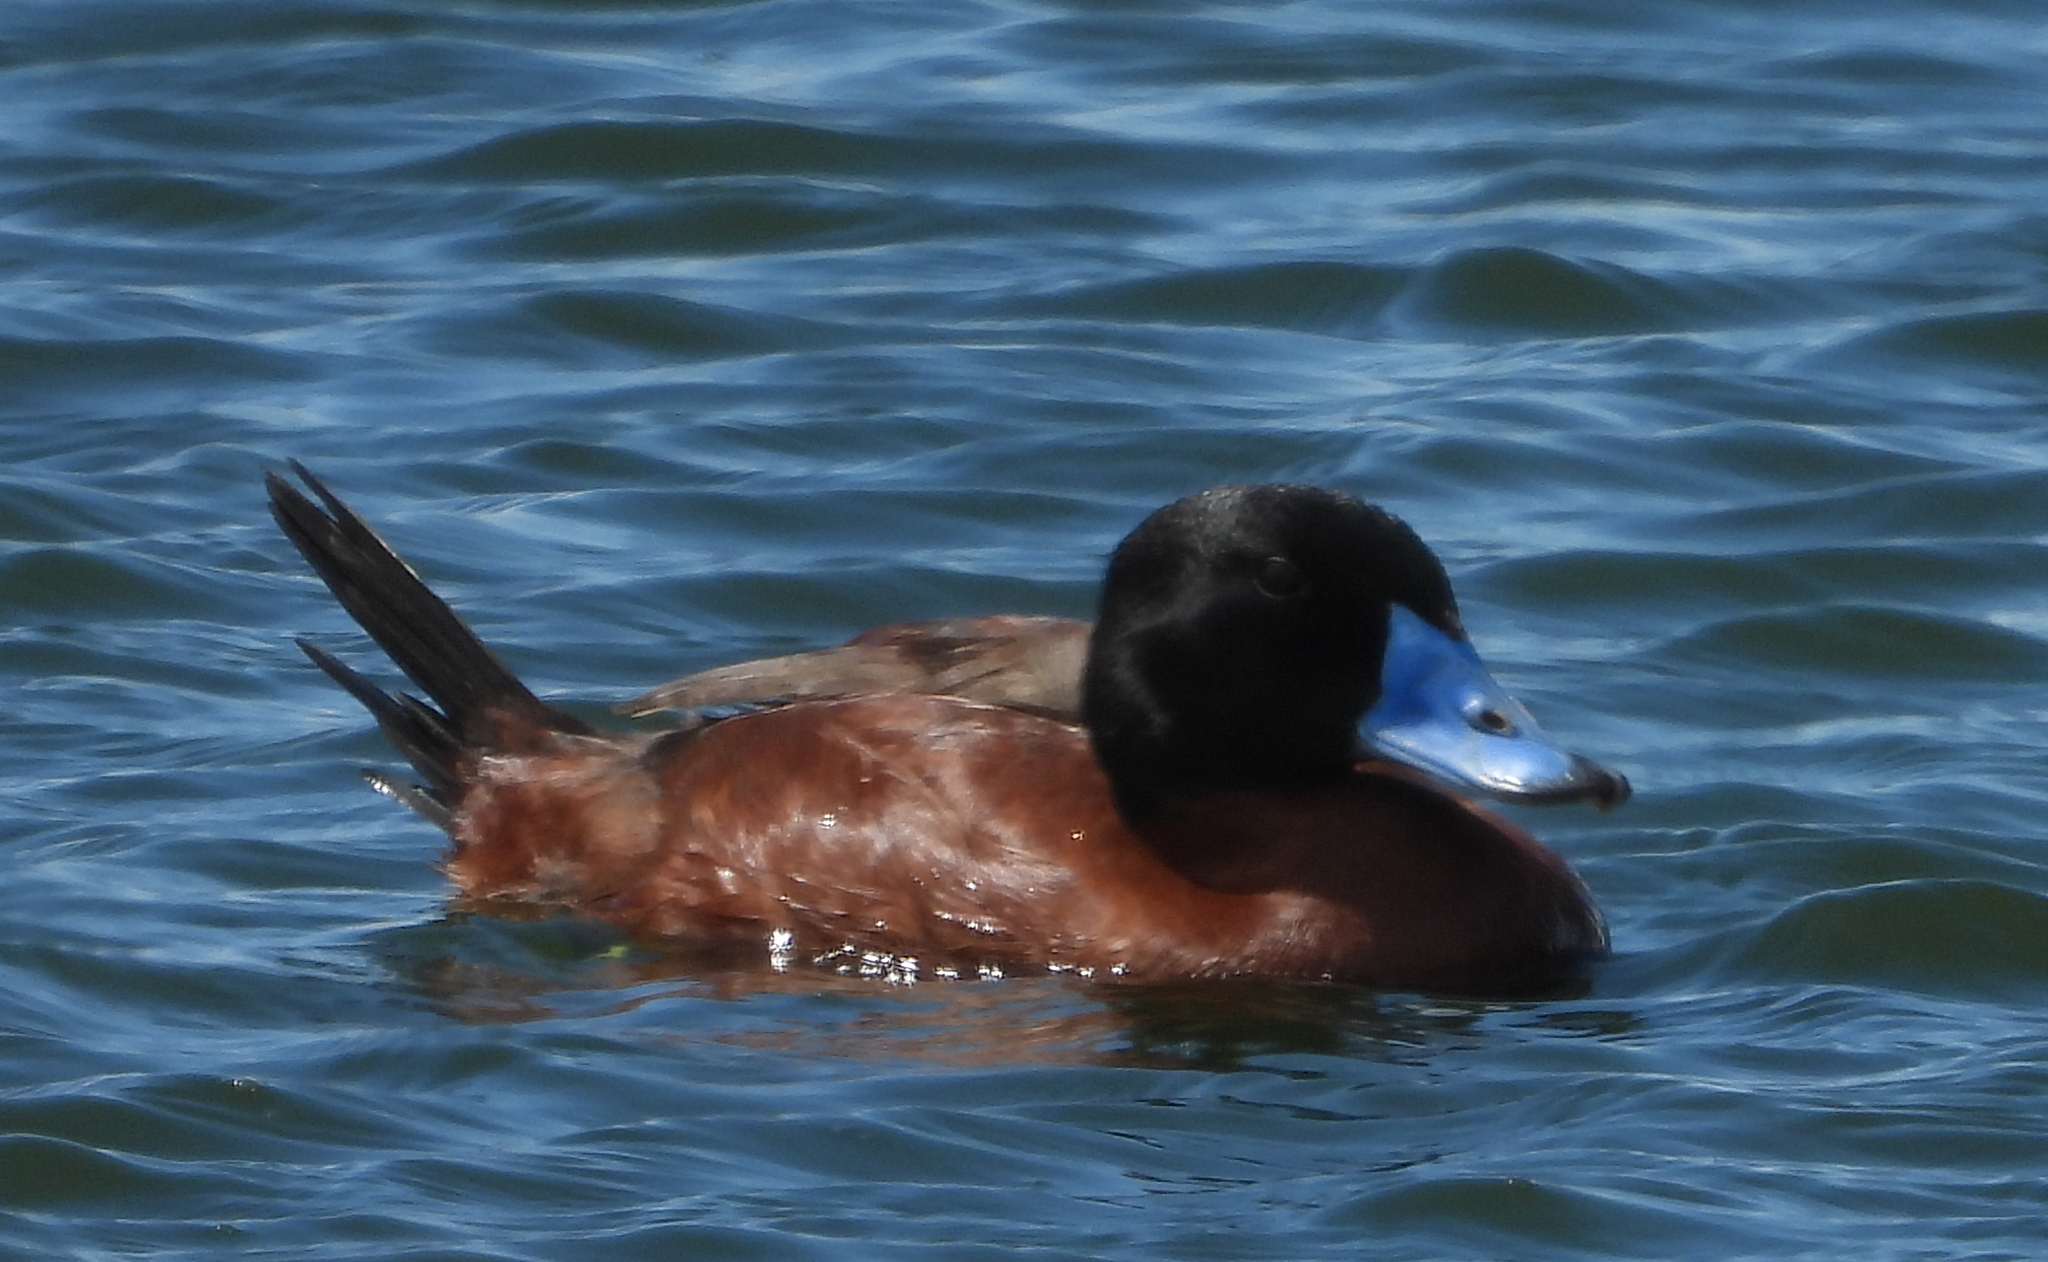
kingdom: Animalia
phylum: Chordata
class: Aves
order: Anseriformes
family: Anatidae
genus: Oxyura
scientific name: Oxyura maccoa
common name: Maccoa duck
